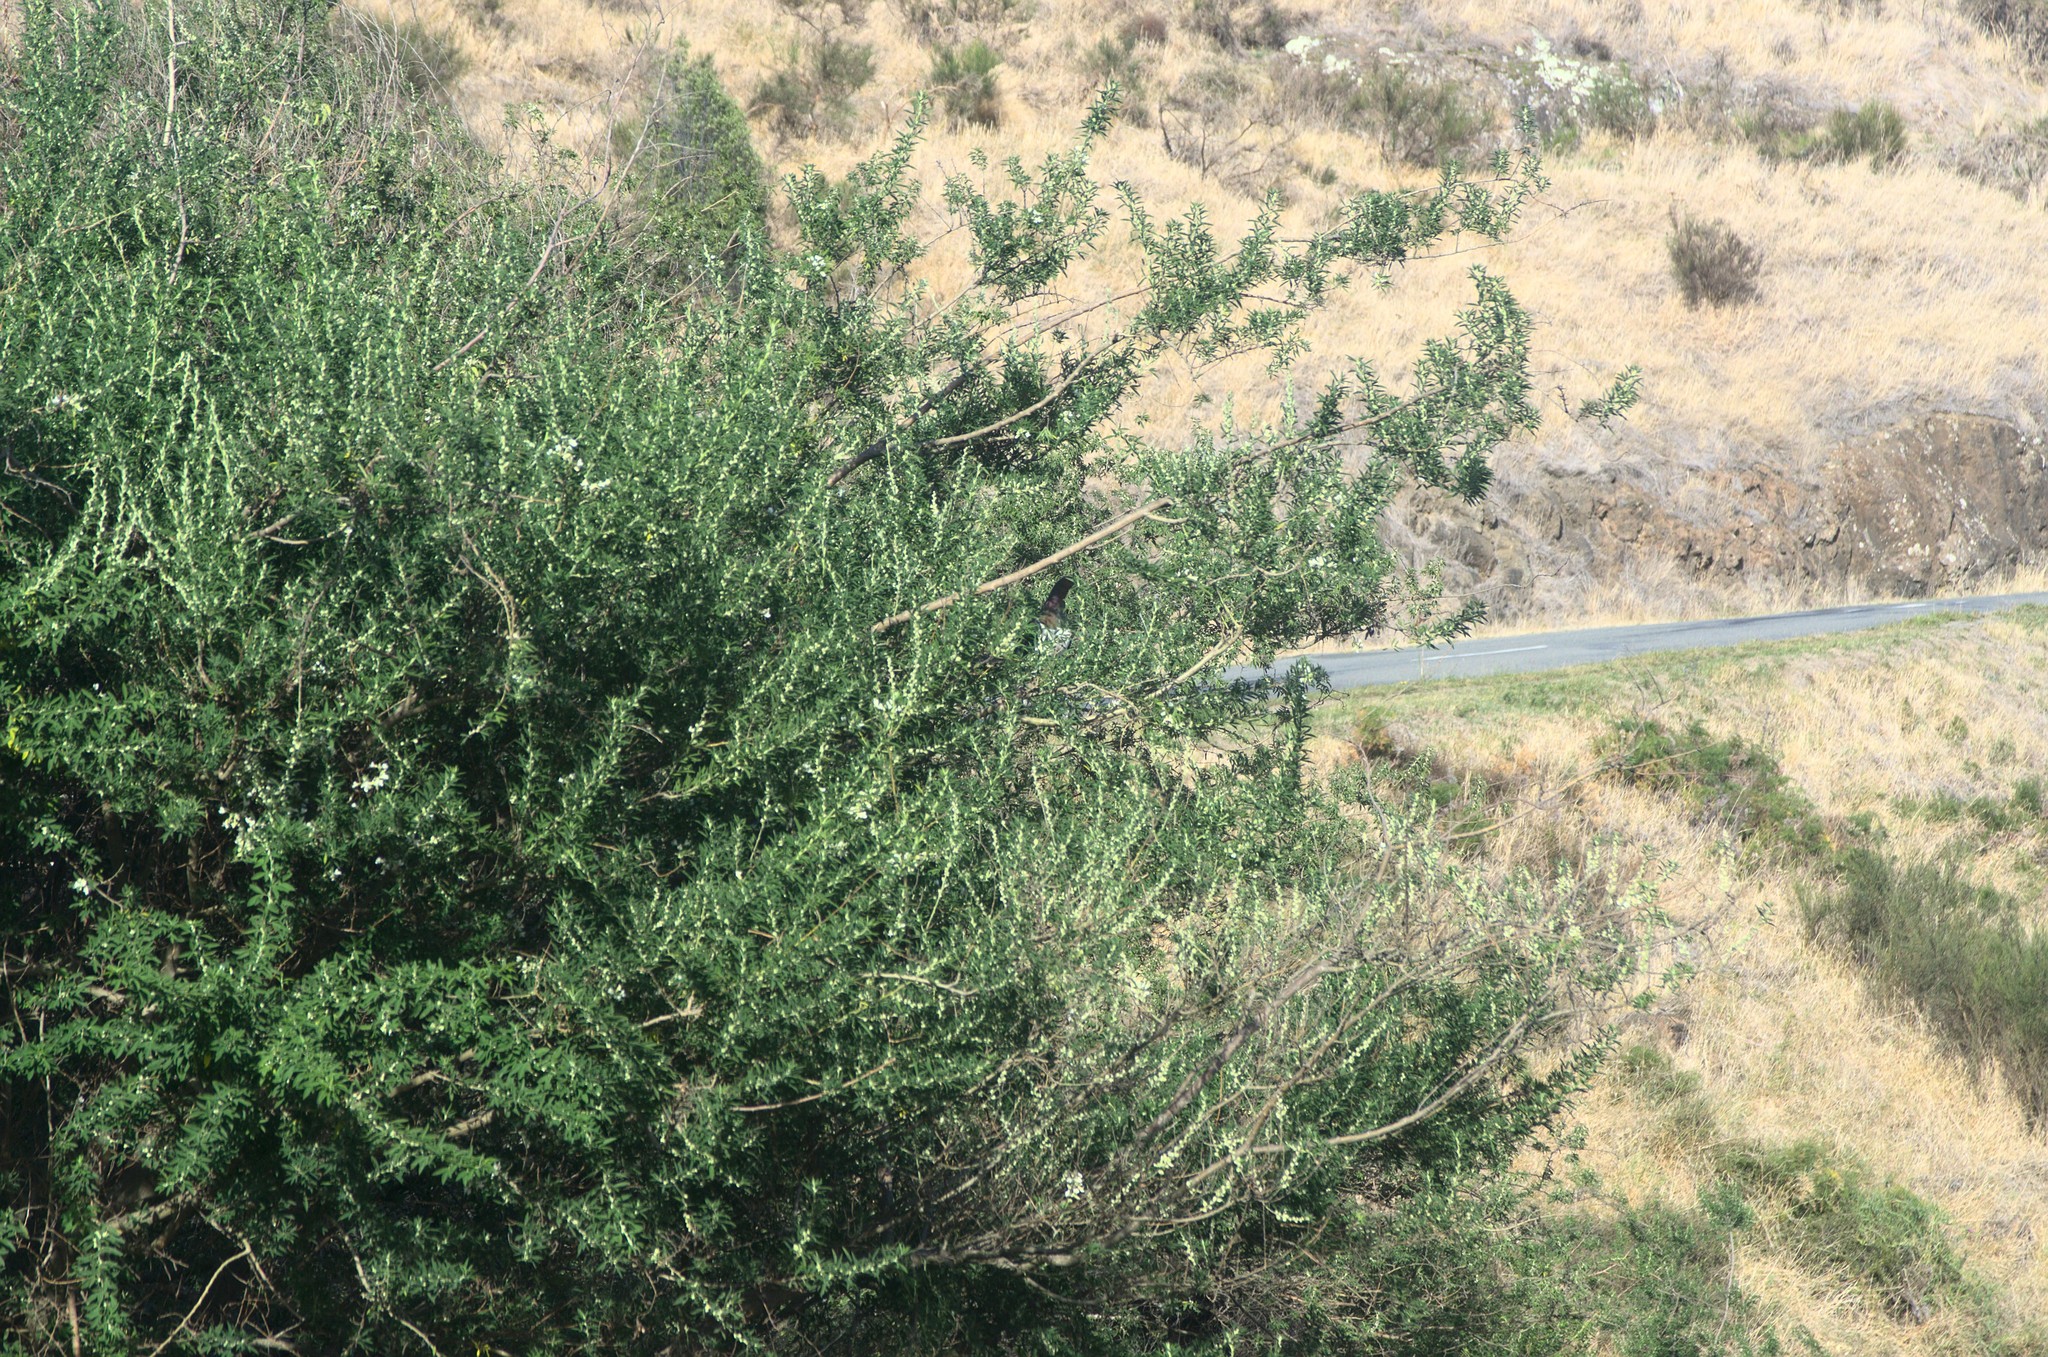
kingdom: Plantae
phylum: Tracheophyta
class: Magnoliopsida
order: Fabales
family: Fabaceae
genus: Chamaecytisus
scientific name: Chamaecytisus prolifer
